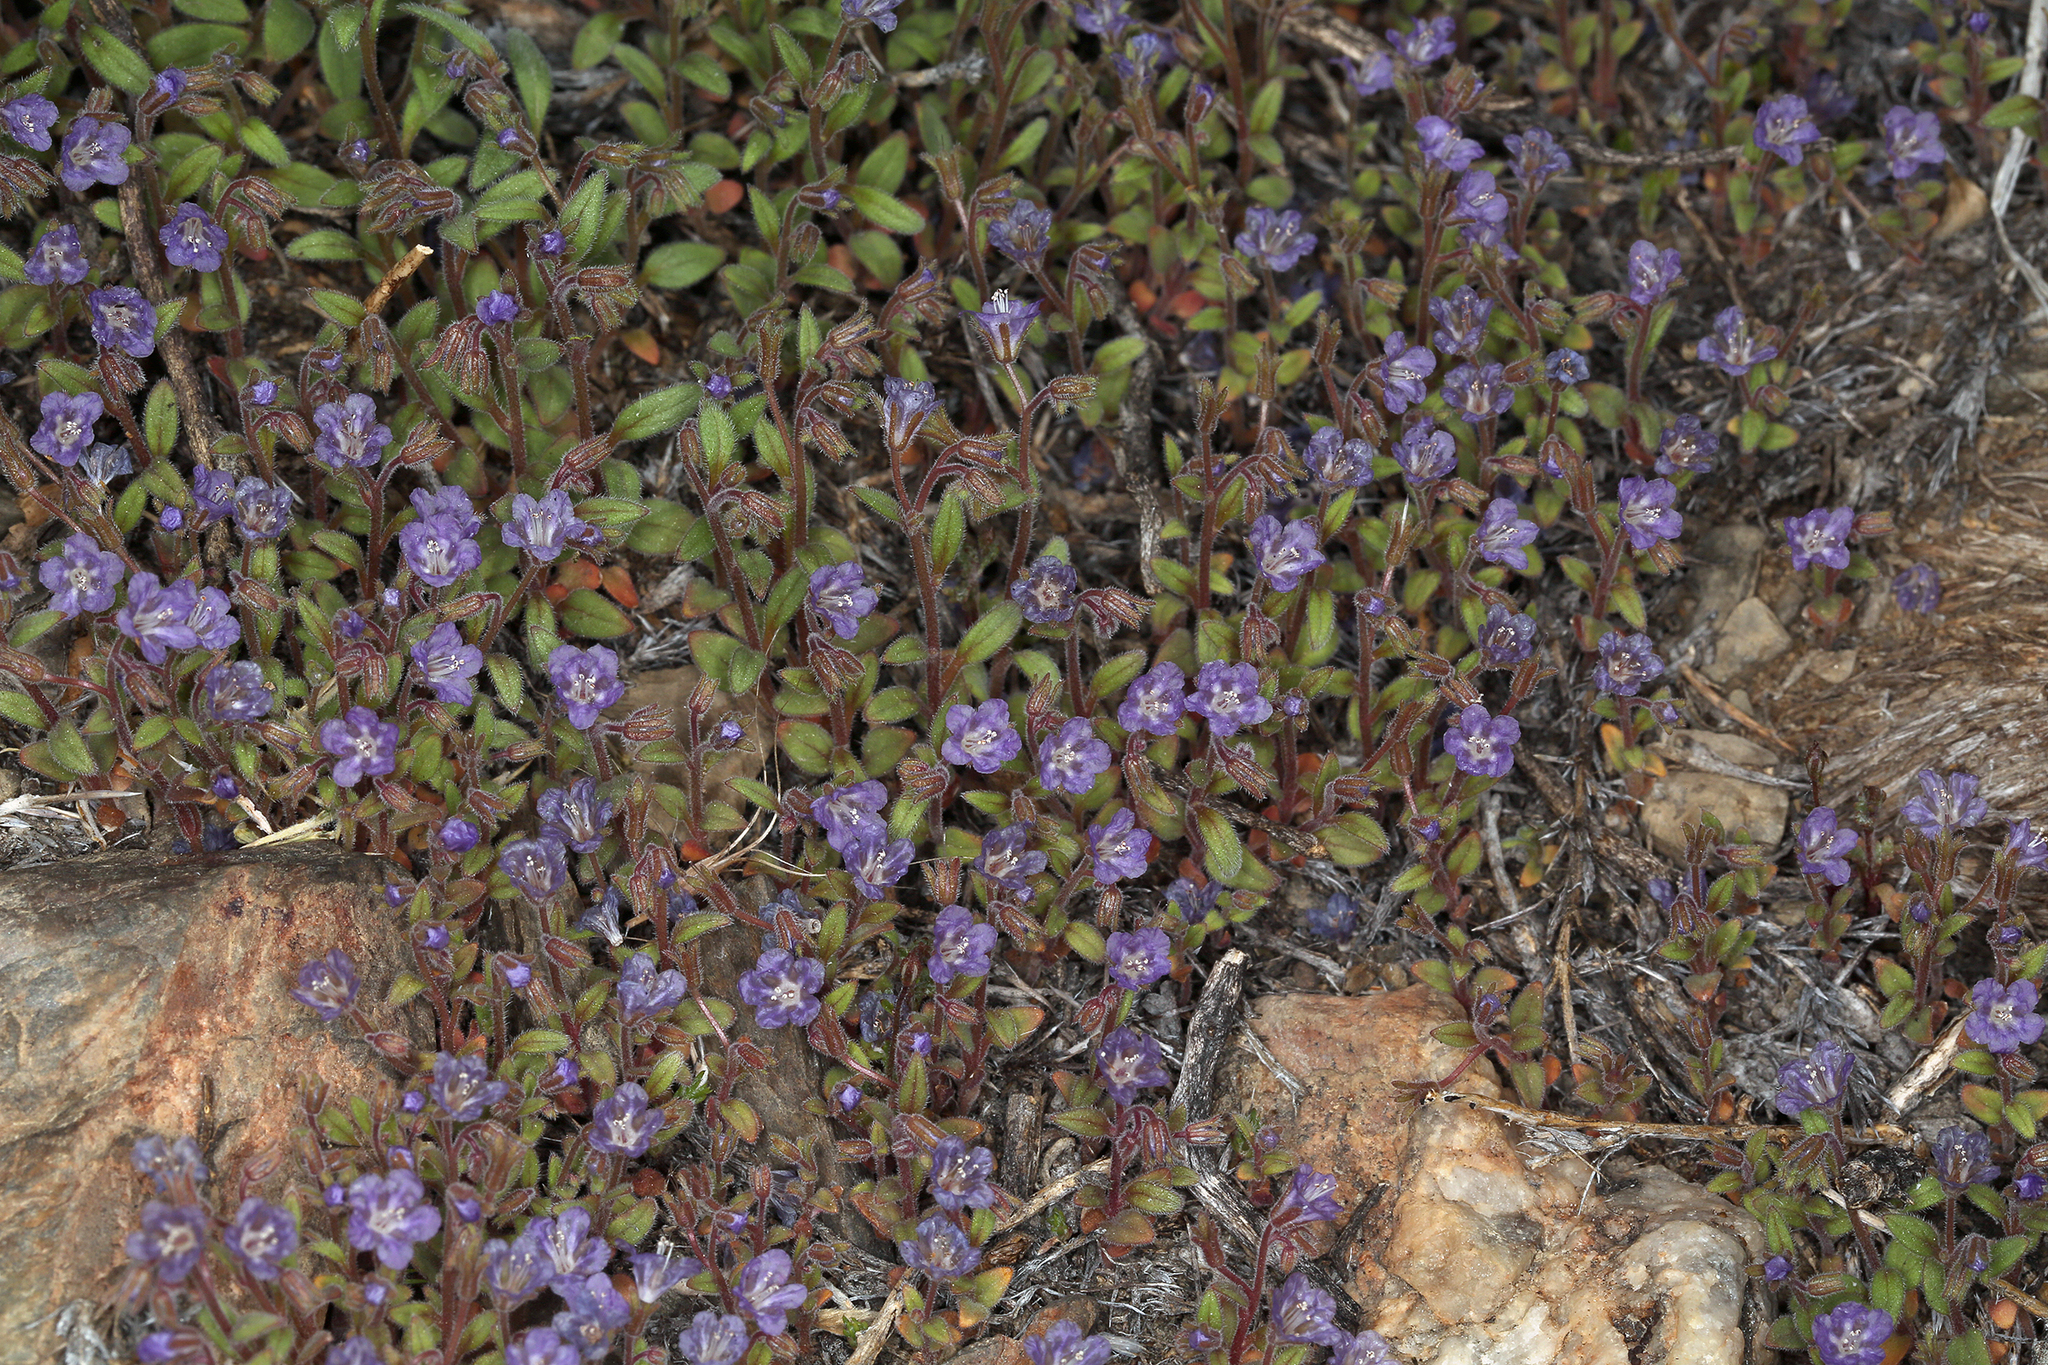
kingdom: Plantae
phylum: Tracheophyta
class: Magnoliopsida
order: Boraginales
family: Hydrophyllaceae
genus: Phacelia
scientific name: Phacelia austromontana
